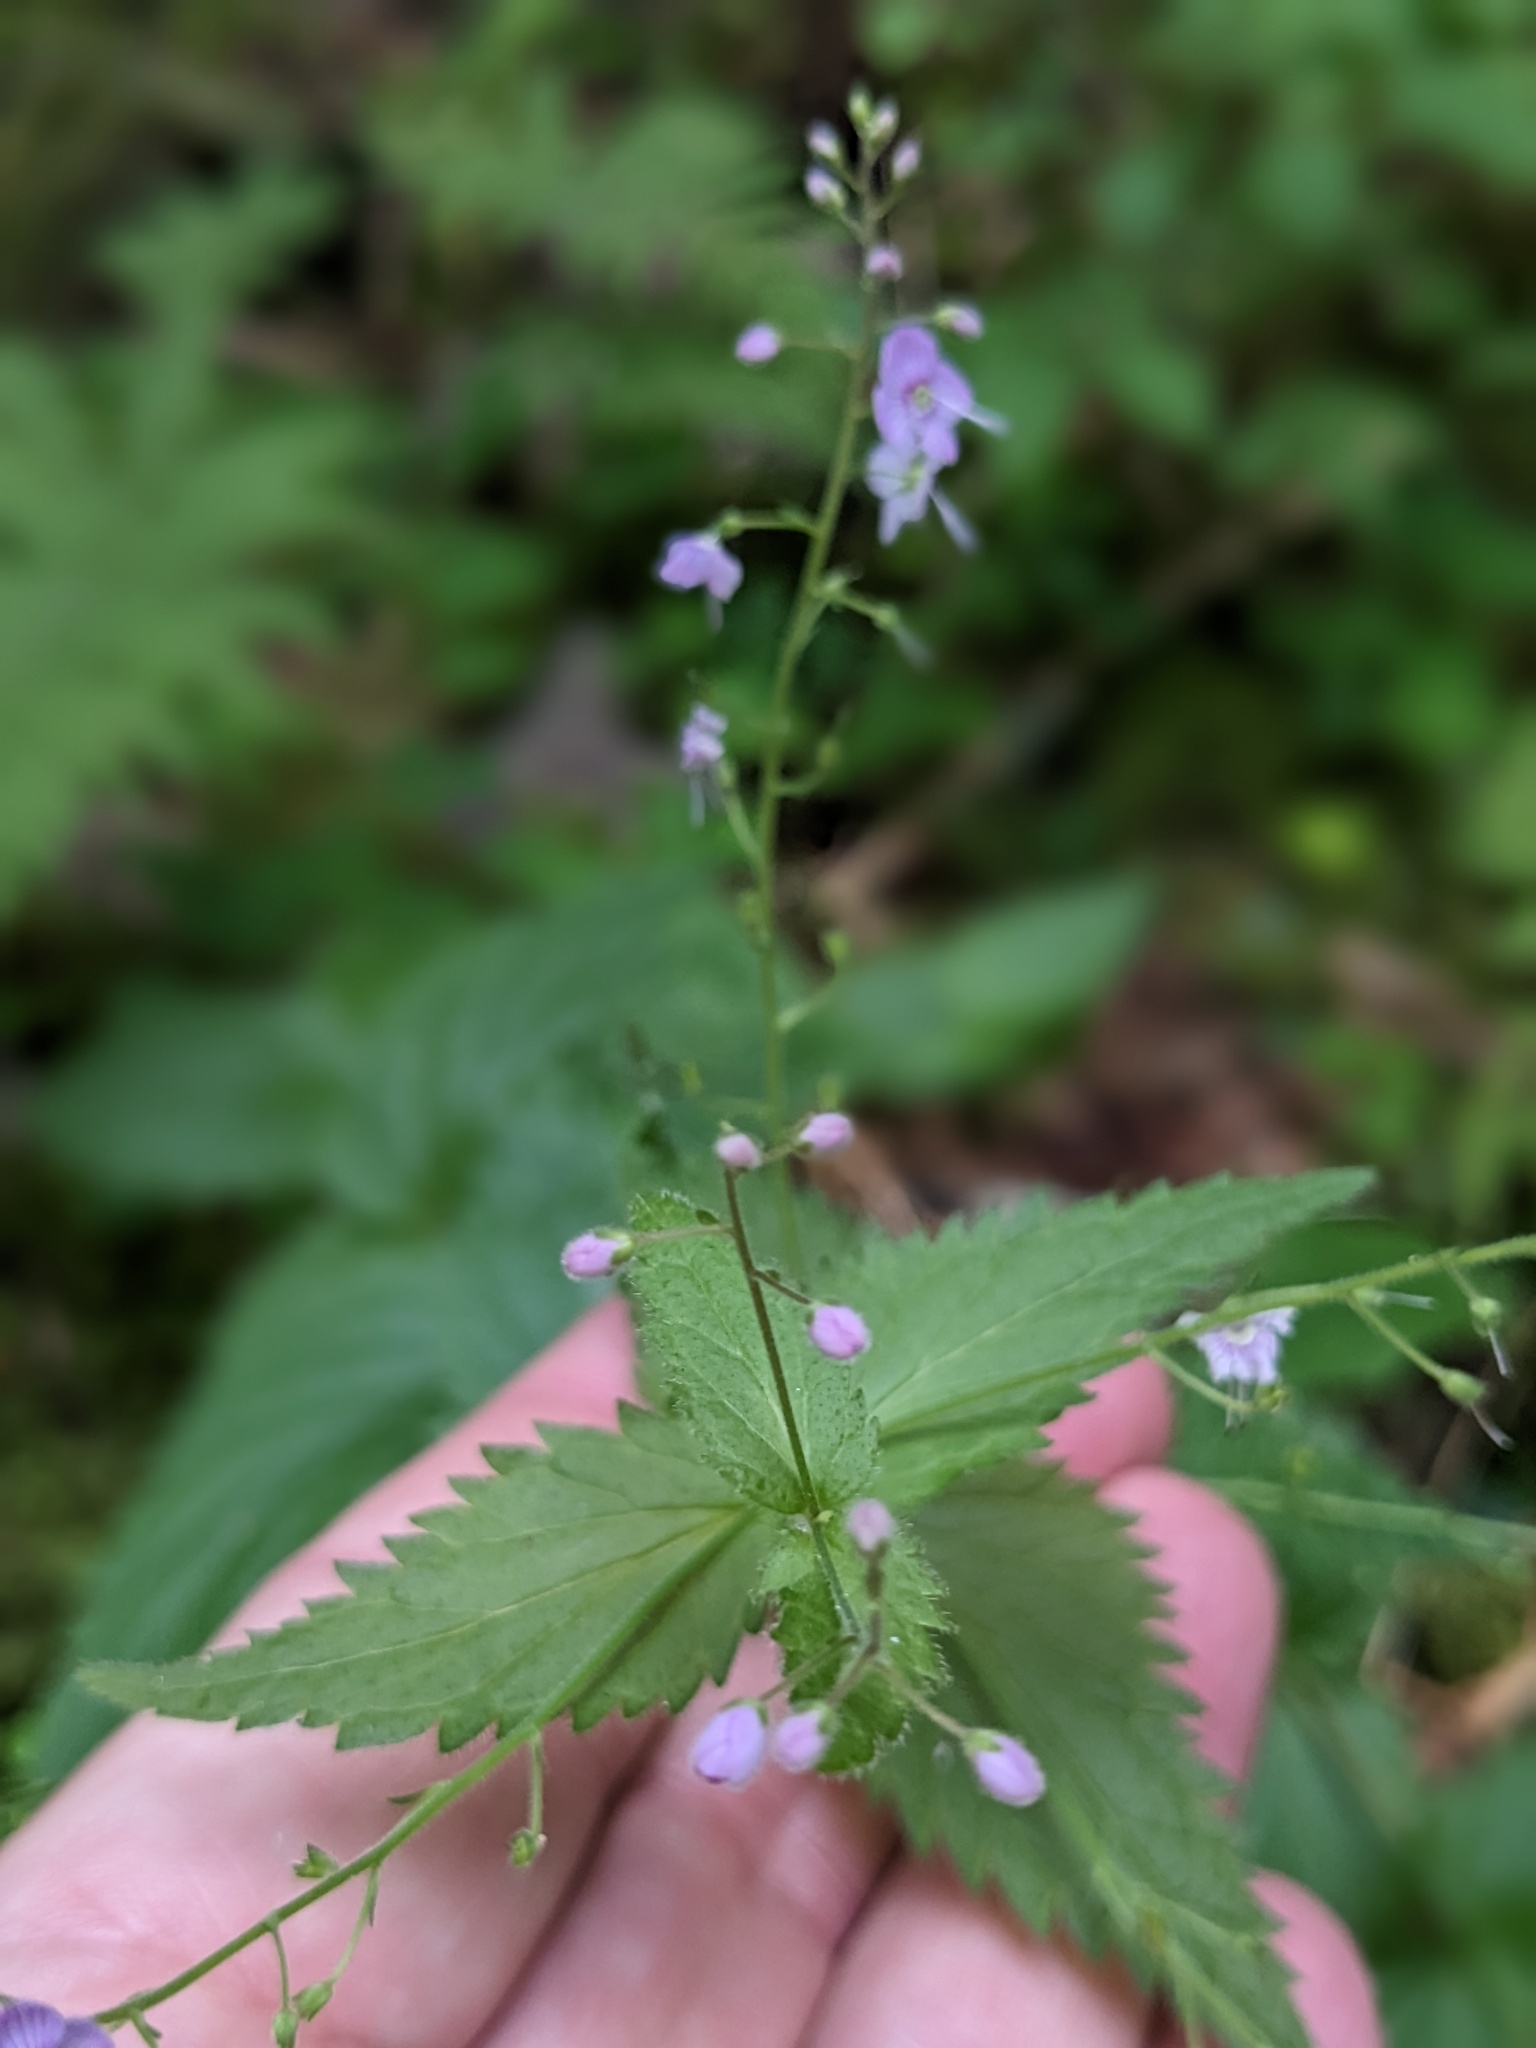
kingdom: Plantae
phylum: Tracheophyta
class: Magnoliopsida
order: Lamiales
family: Plantaginaceae
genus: Veronica
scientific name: Veronica urticifolia
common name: Nettle-leaf speedwell
